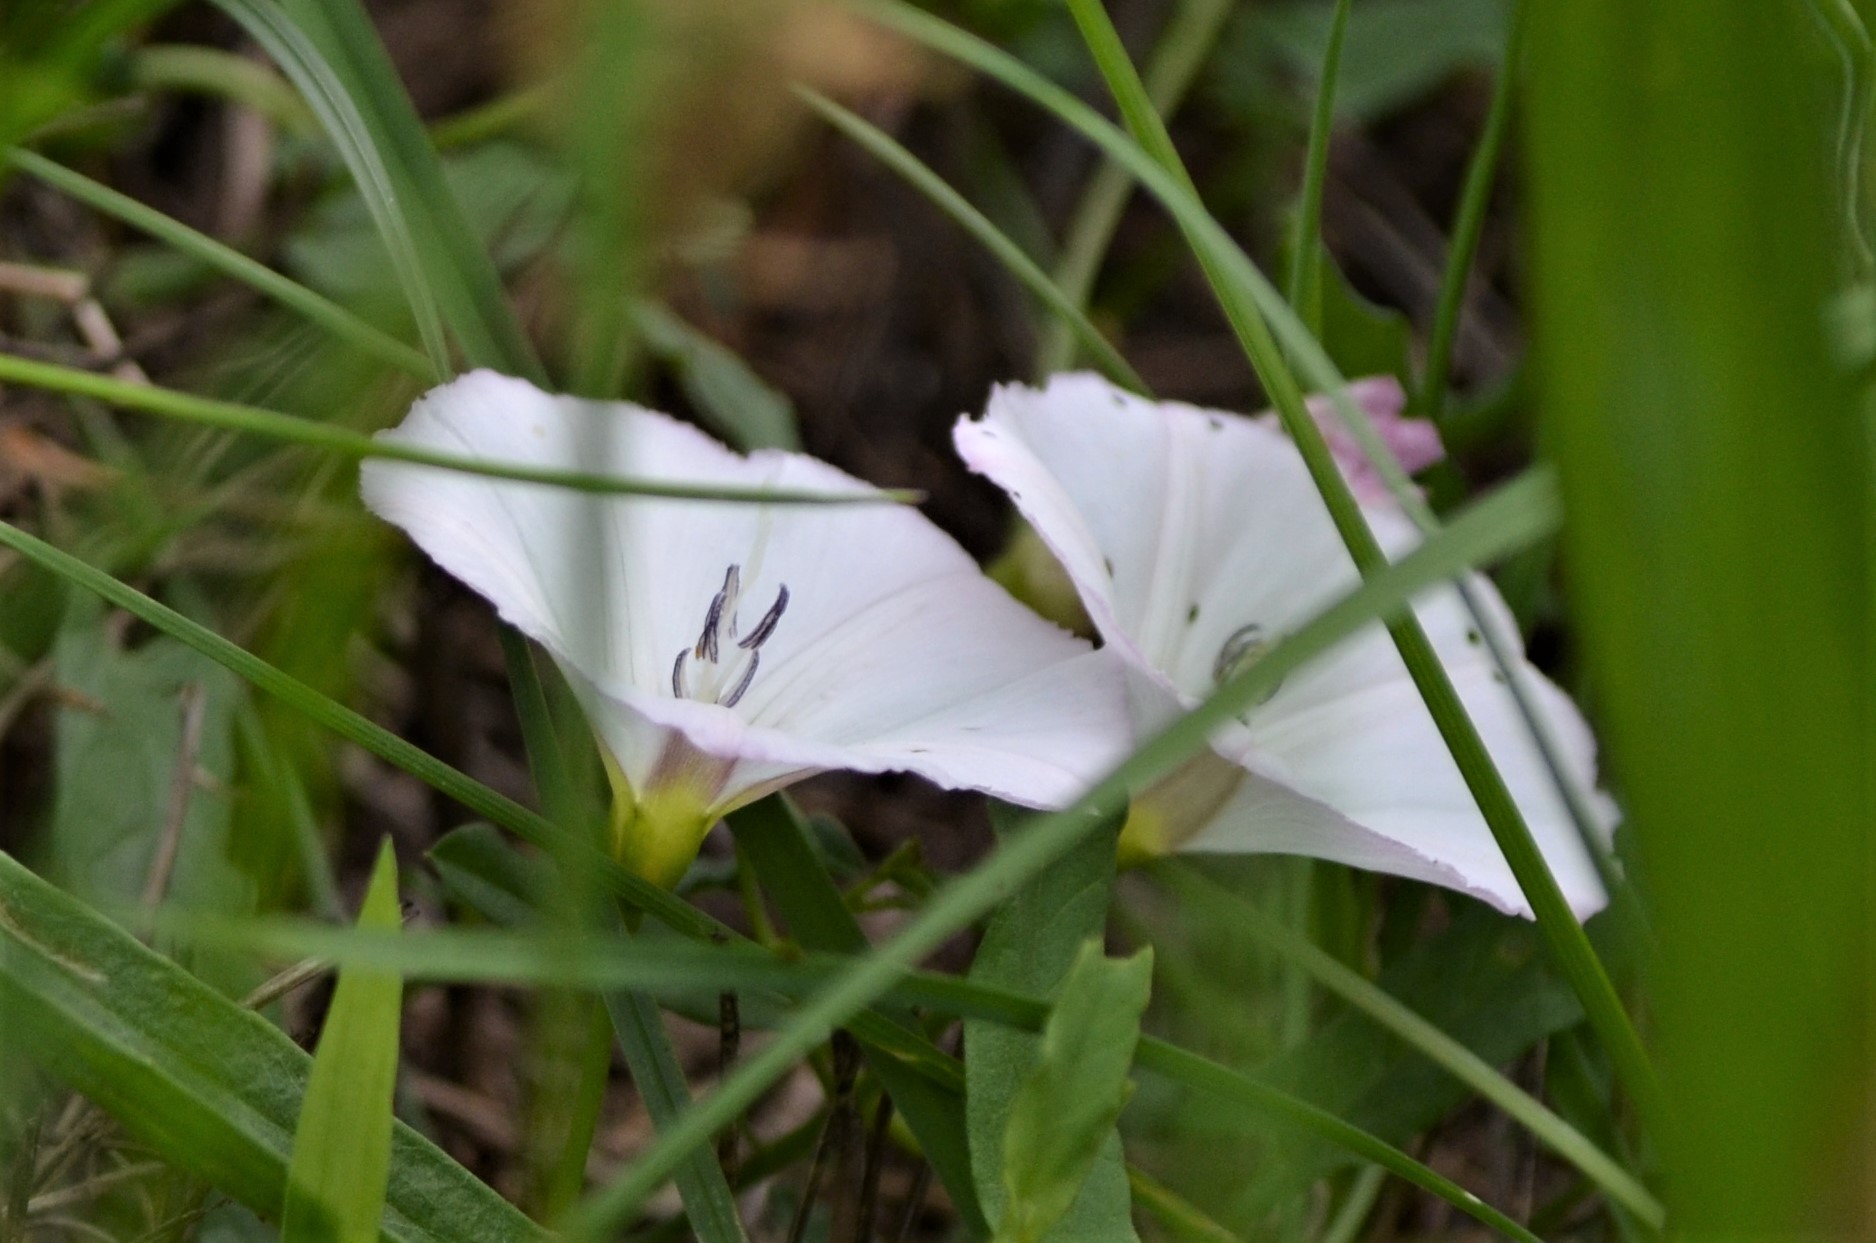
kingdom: Plantae
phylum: Tracheophyta
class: Magnoliopsida
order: Solanales
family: Convolvulaceae
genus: Convolvulus
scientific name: Convolvulus arvensis
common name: Field bindweed
